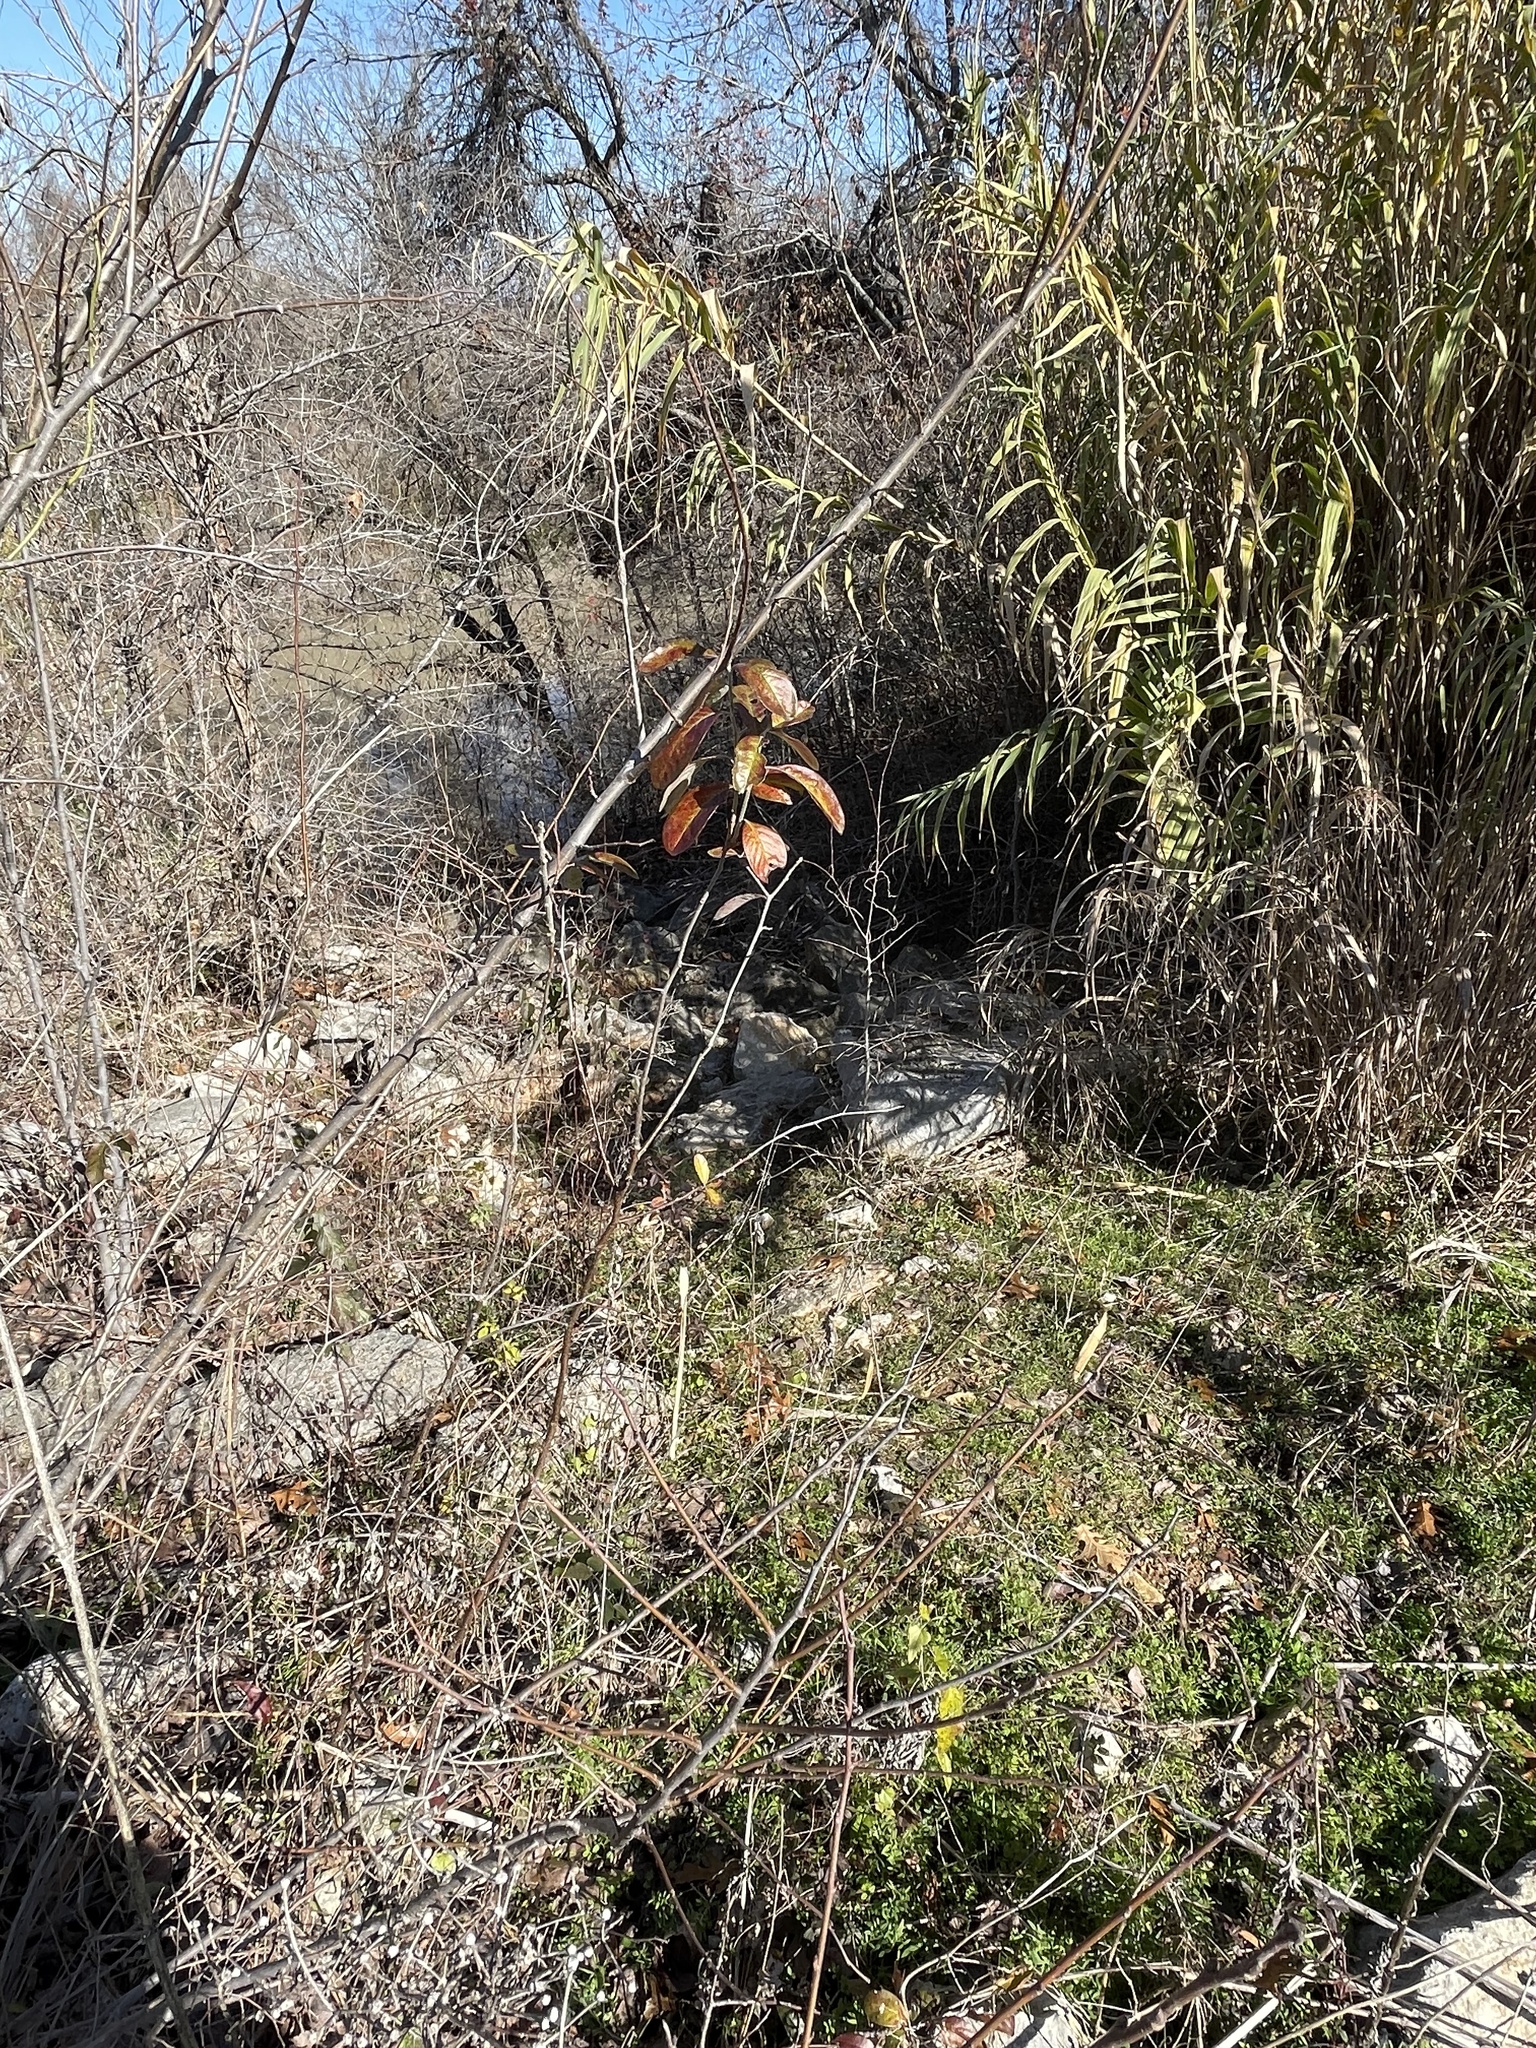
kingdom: Plantae
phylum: Tracheophyta
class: Magnoliopsida
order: Ericales
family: Sapotaceae
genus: Sideroxylon
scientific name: Sideroxylon lanuginosum
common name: Chittamwood
